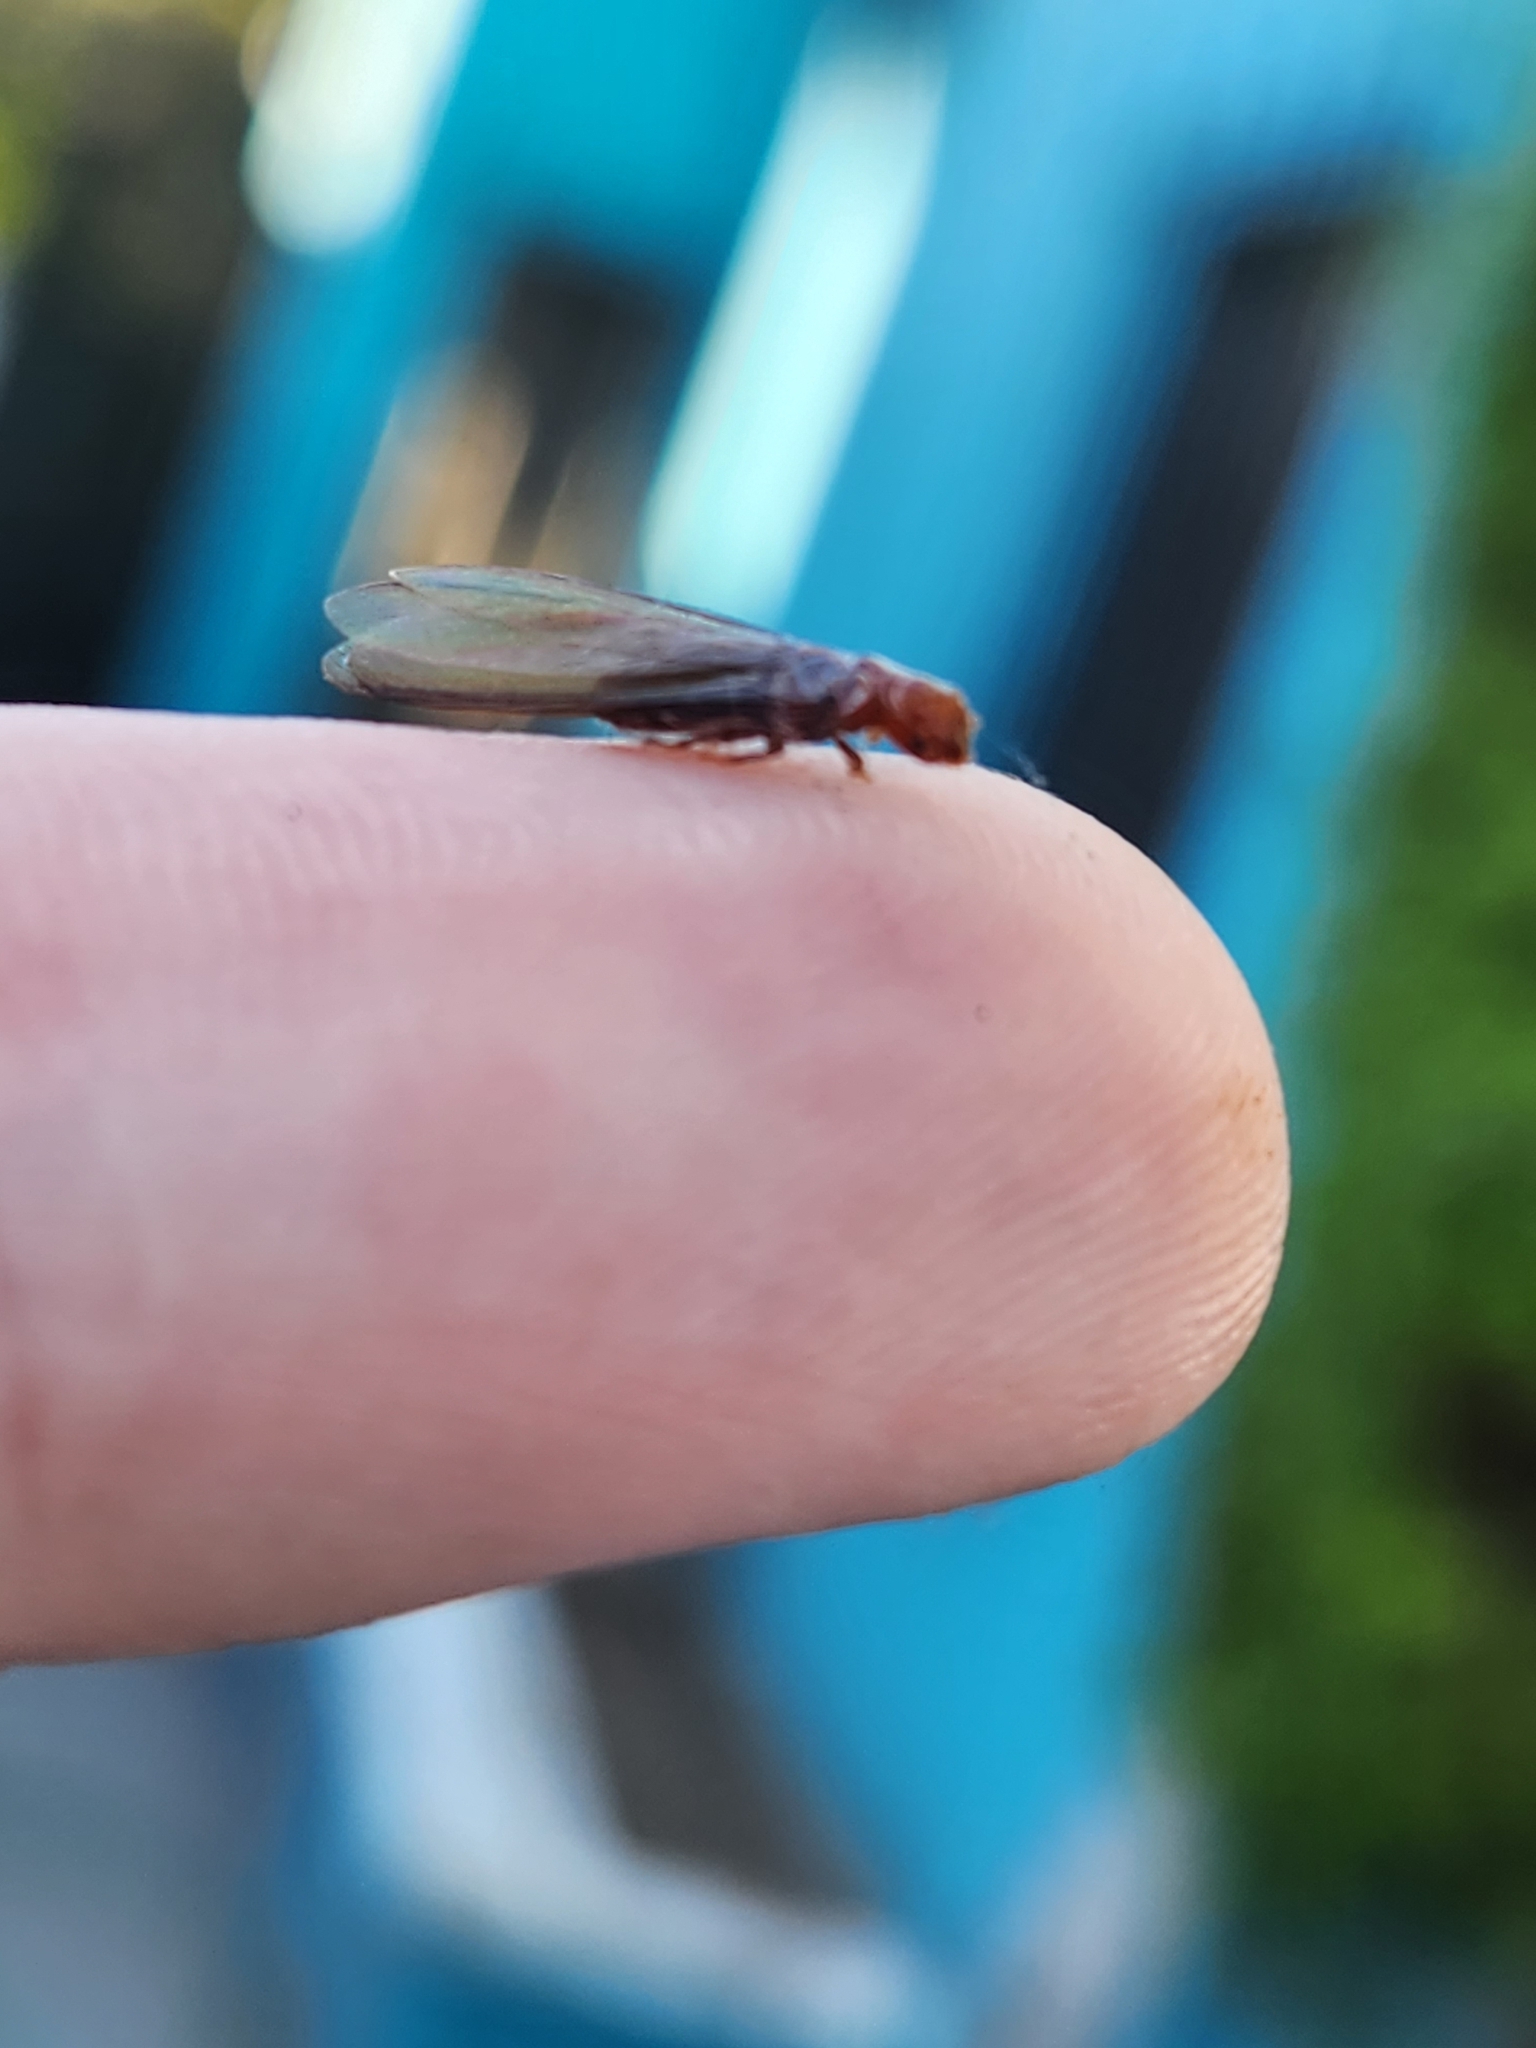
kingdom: Animalia
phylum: Arthropoda
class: Insecta
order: Blattodea
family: Kalotermitidae
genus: Incisitermes
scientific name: Incisitermes minor
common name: Termite
